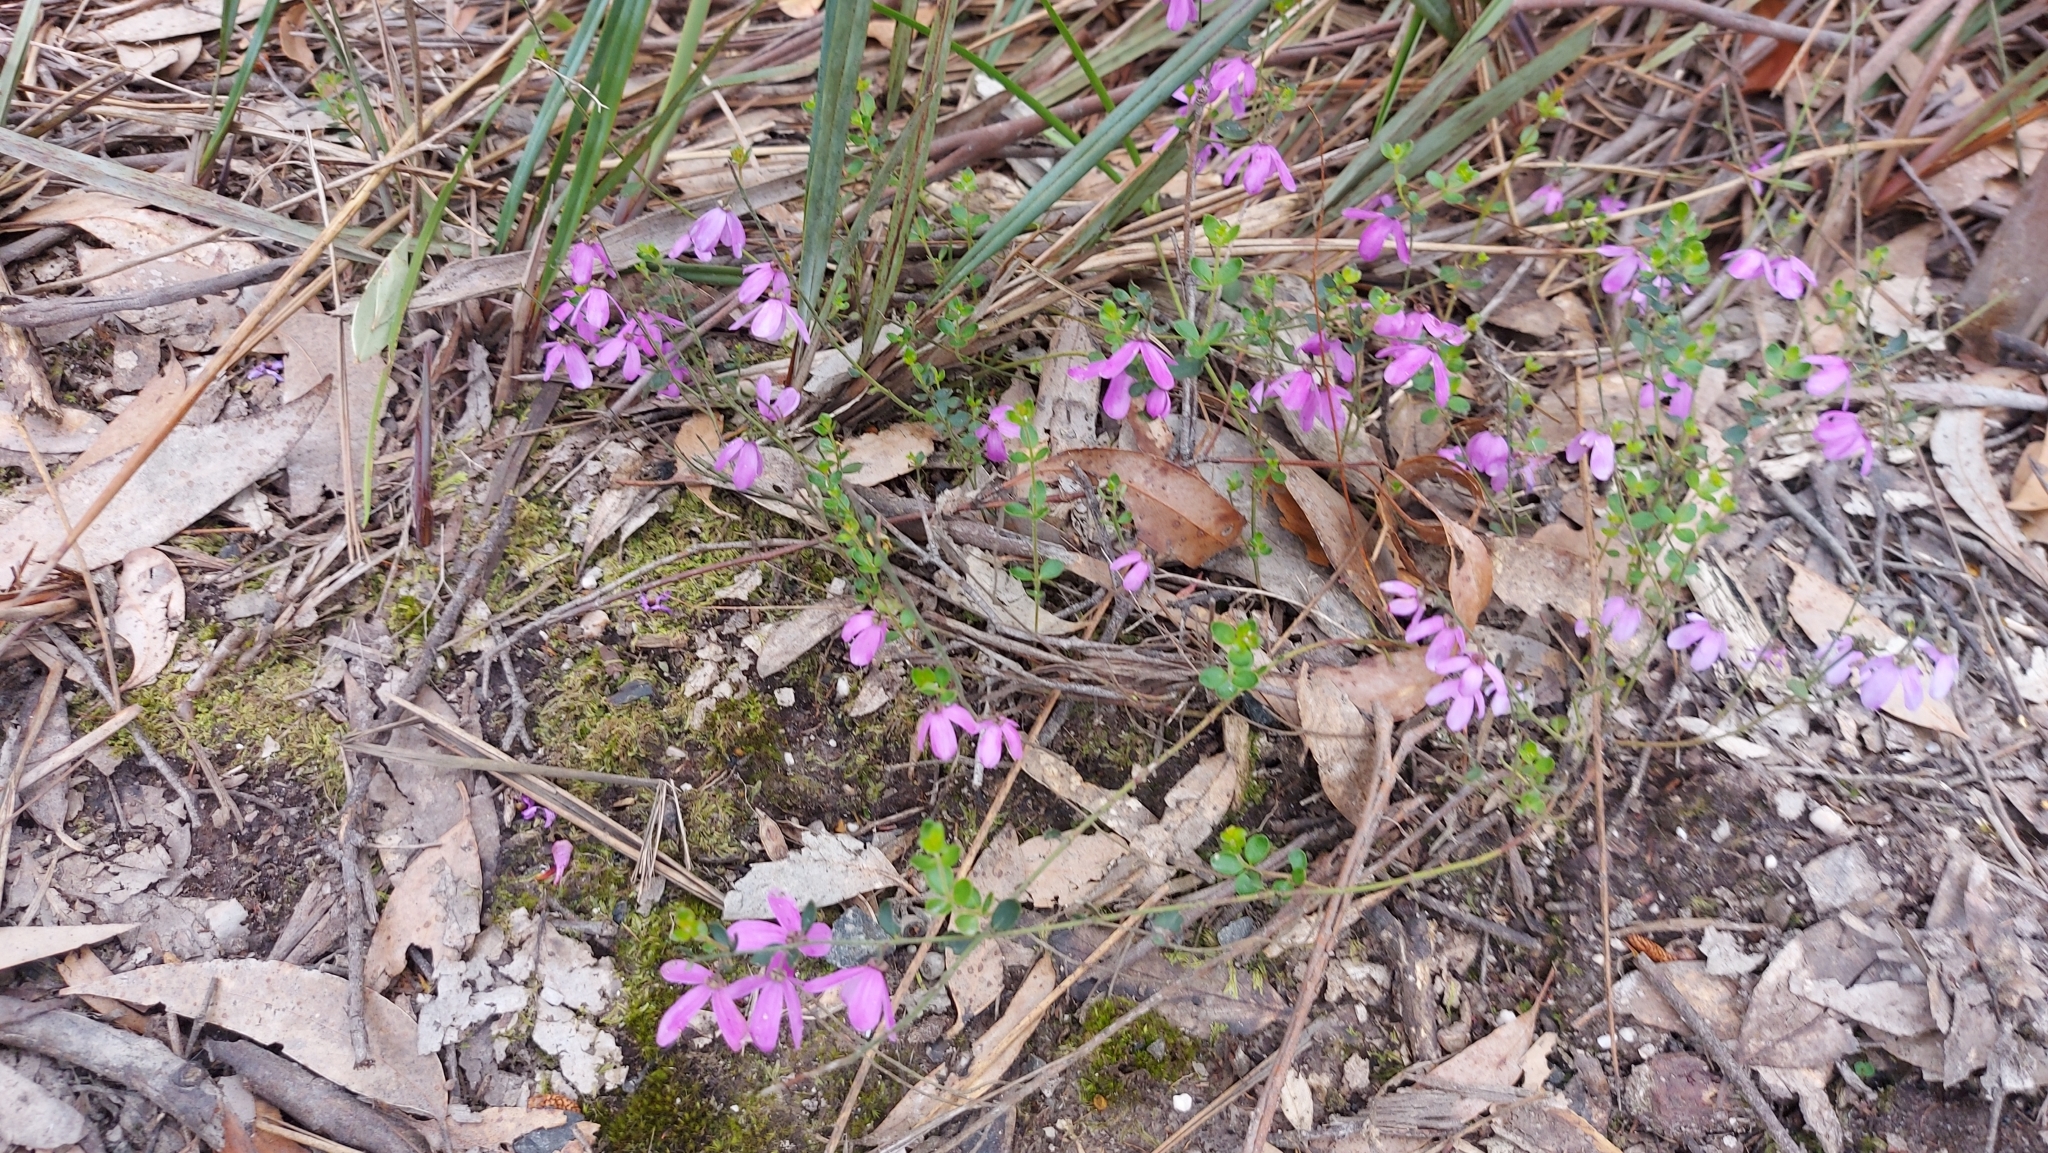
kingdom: Plantae
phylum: Tracheophyta
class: Magnoliopsida
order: Oxalidales
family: Elaeocarpaceae
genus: Tetratheca
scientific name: Tetratheca ciliata
